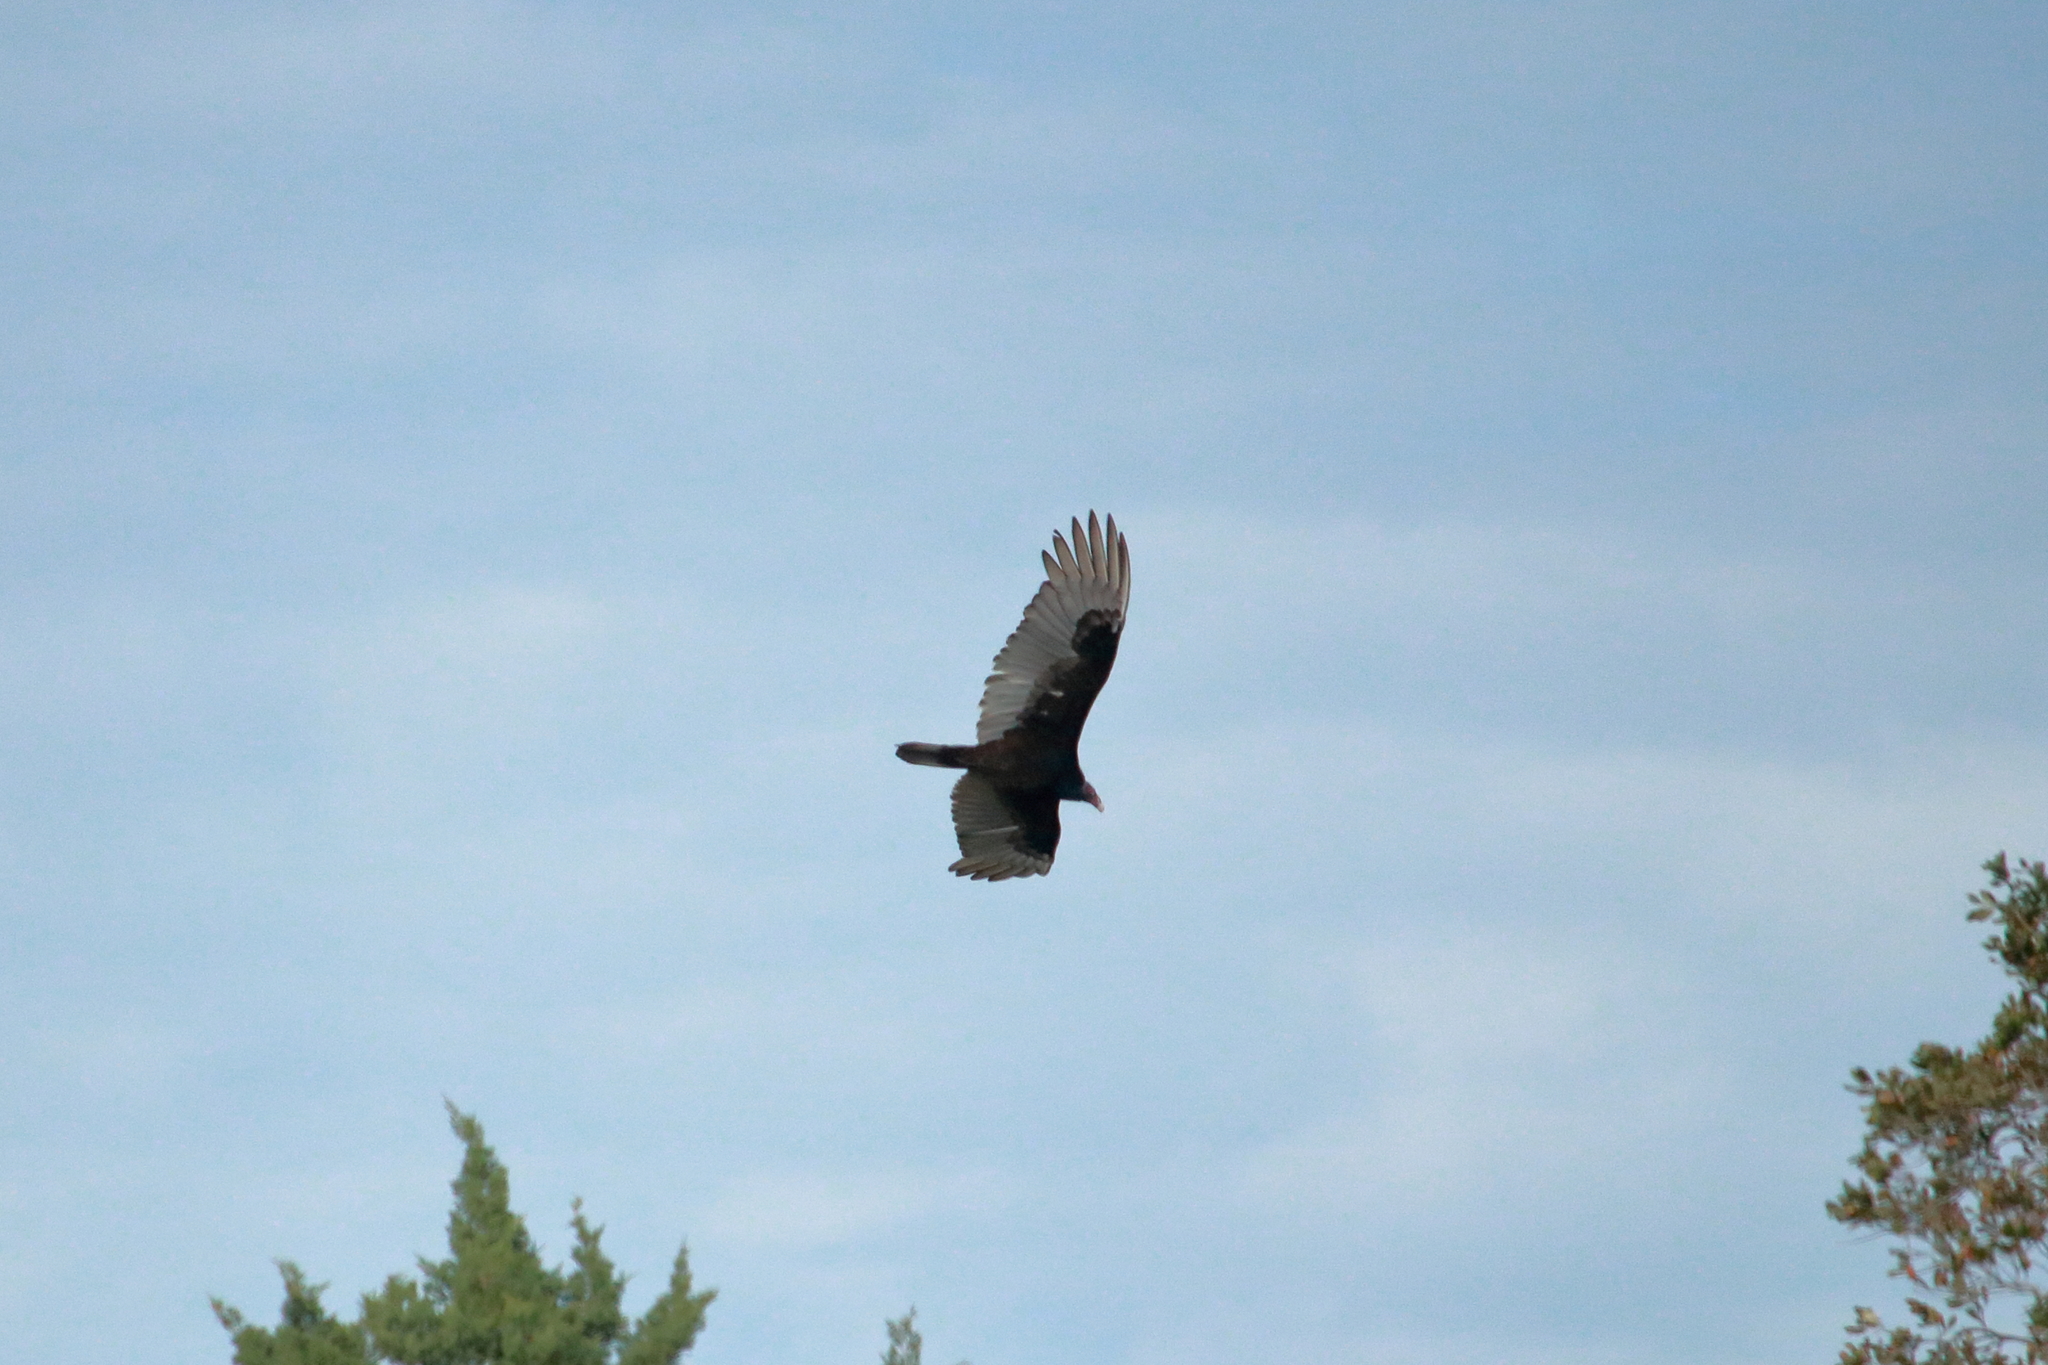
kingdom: Animalia
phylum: Chordata
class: Aves
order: Accipitriformes
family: Cathartidae
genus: Cathartes
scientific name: Cathartes aura
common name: Turkey vulture
